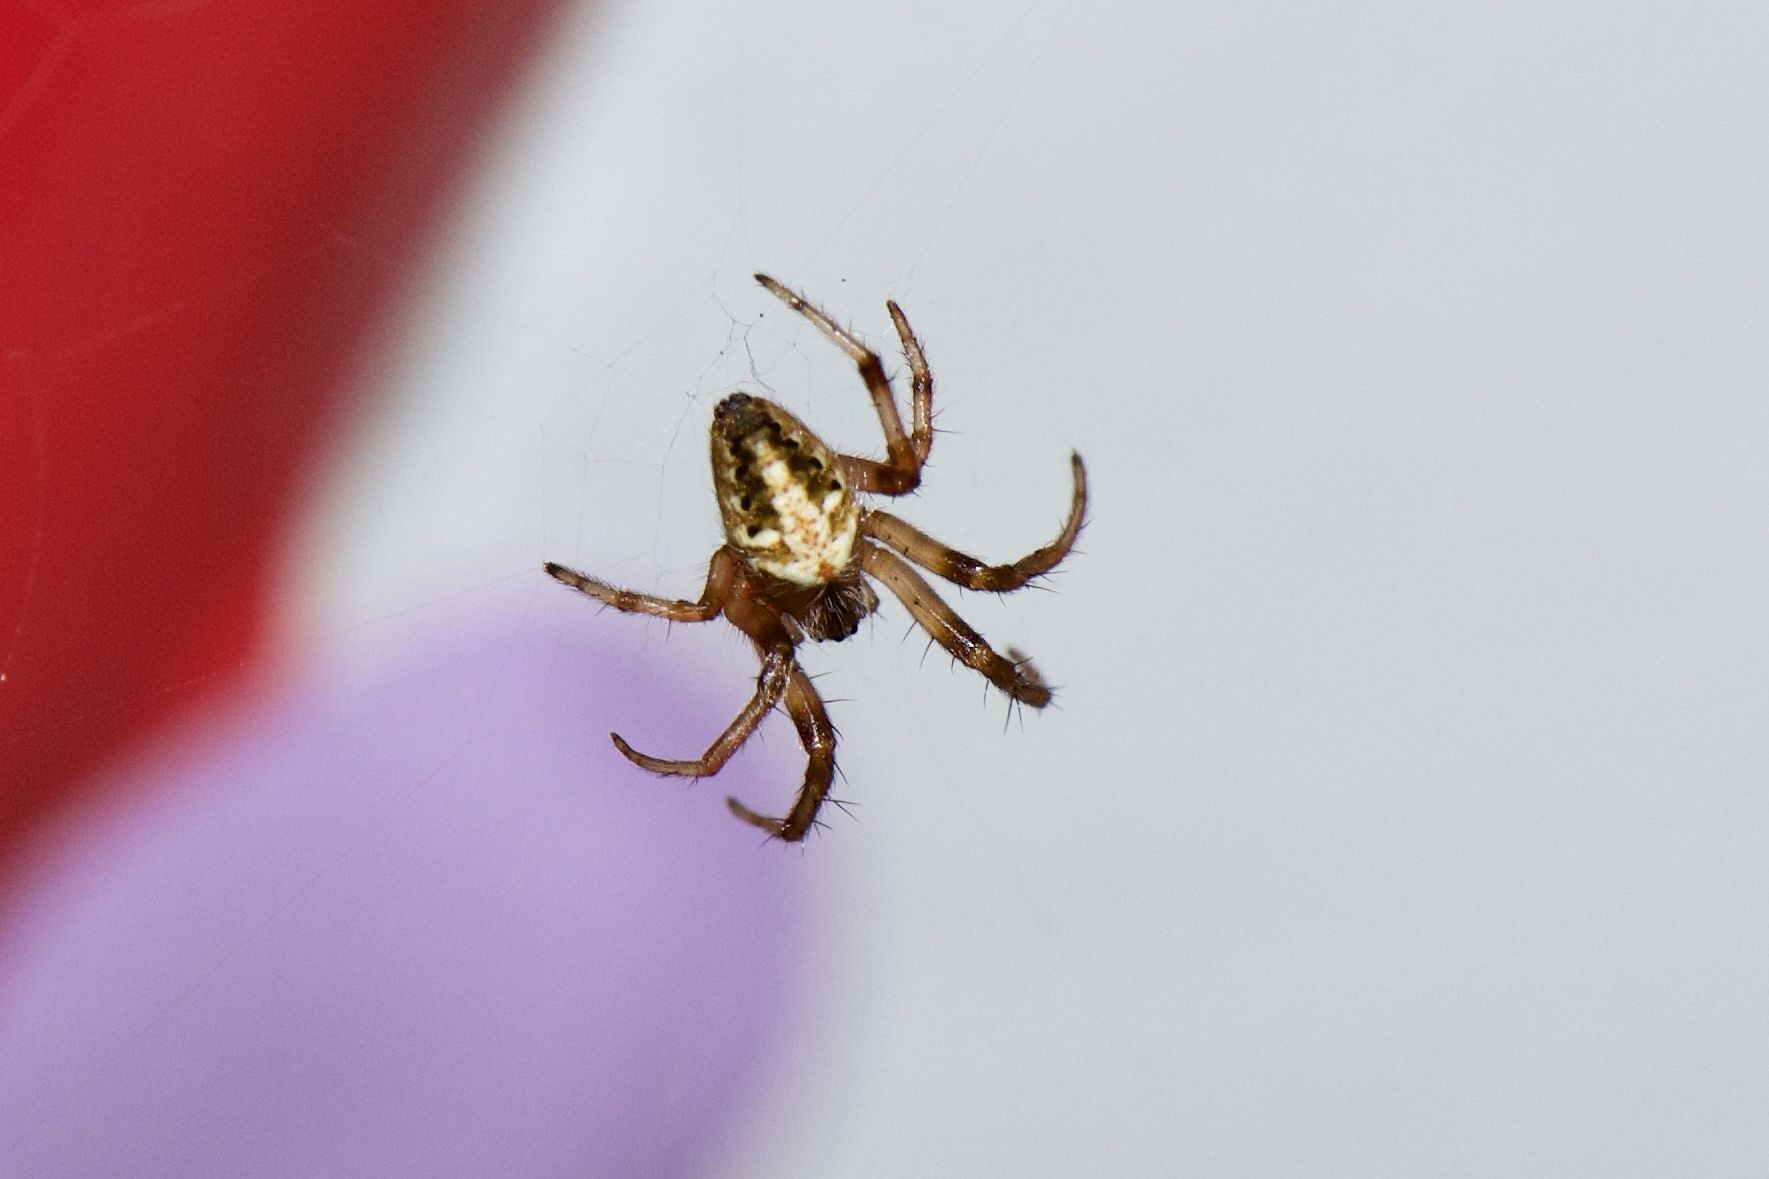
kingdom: Animalia
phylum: Arthropoda
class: Arachnida
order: Araneae
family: Araneidae
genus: Neoscona
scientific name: Neoscona arabesca
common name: Orb weavers
